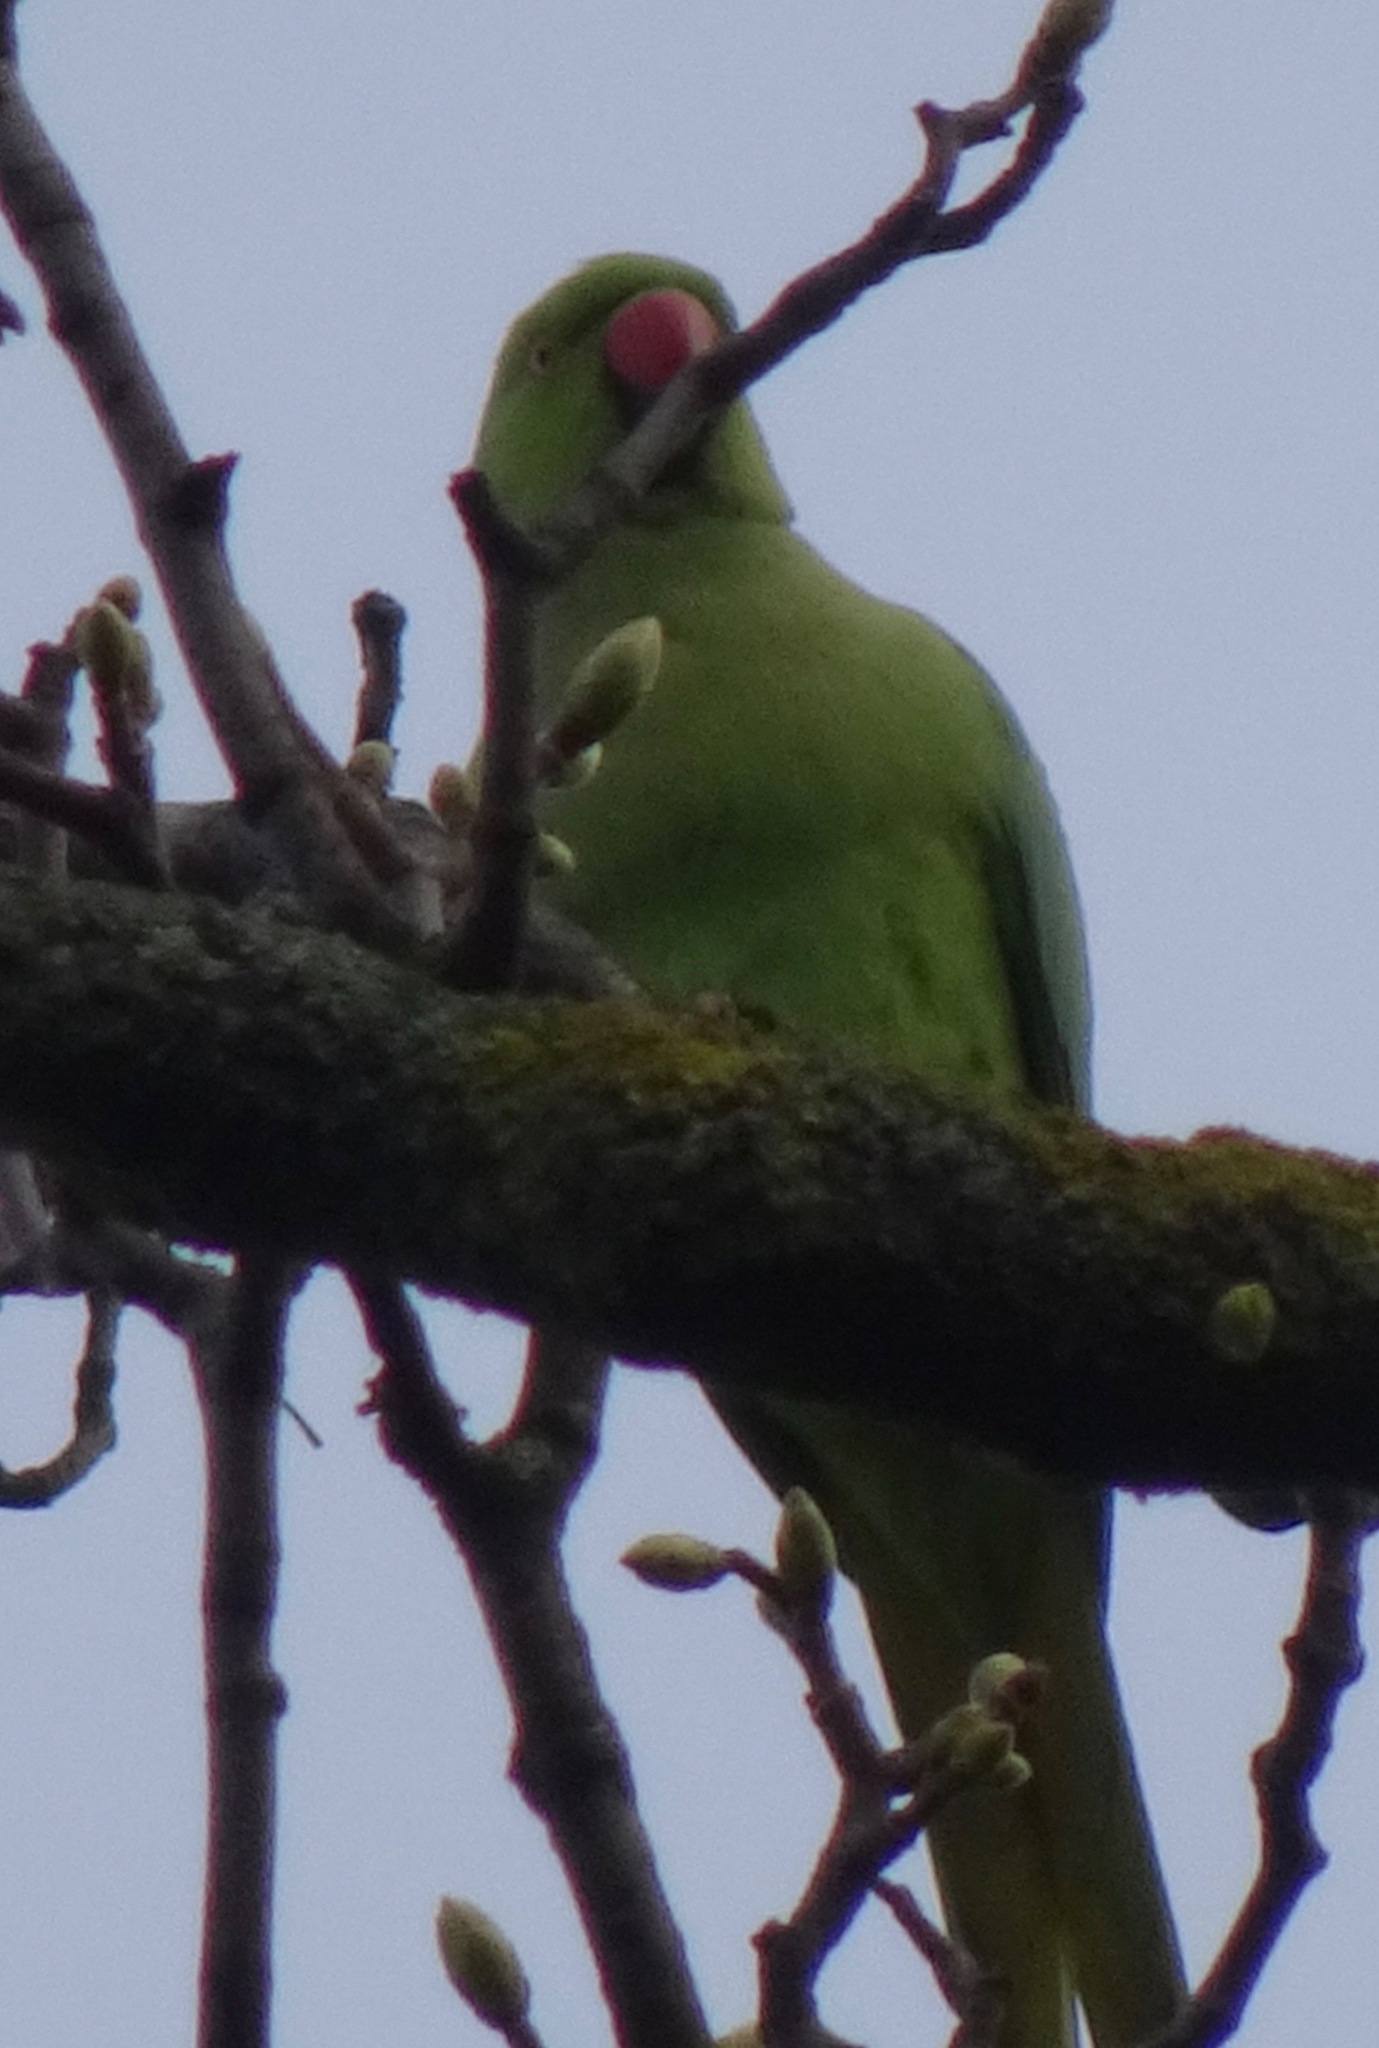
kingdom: Animalia
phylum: Chordata
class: Aves
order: Psittaciformes
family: Psittacidae
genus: Psittacula
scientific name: Psittacula krameri
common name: Rose-ringed parakeet
